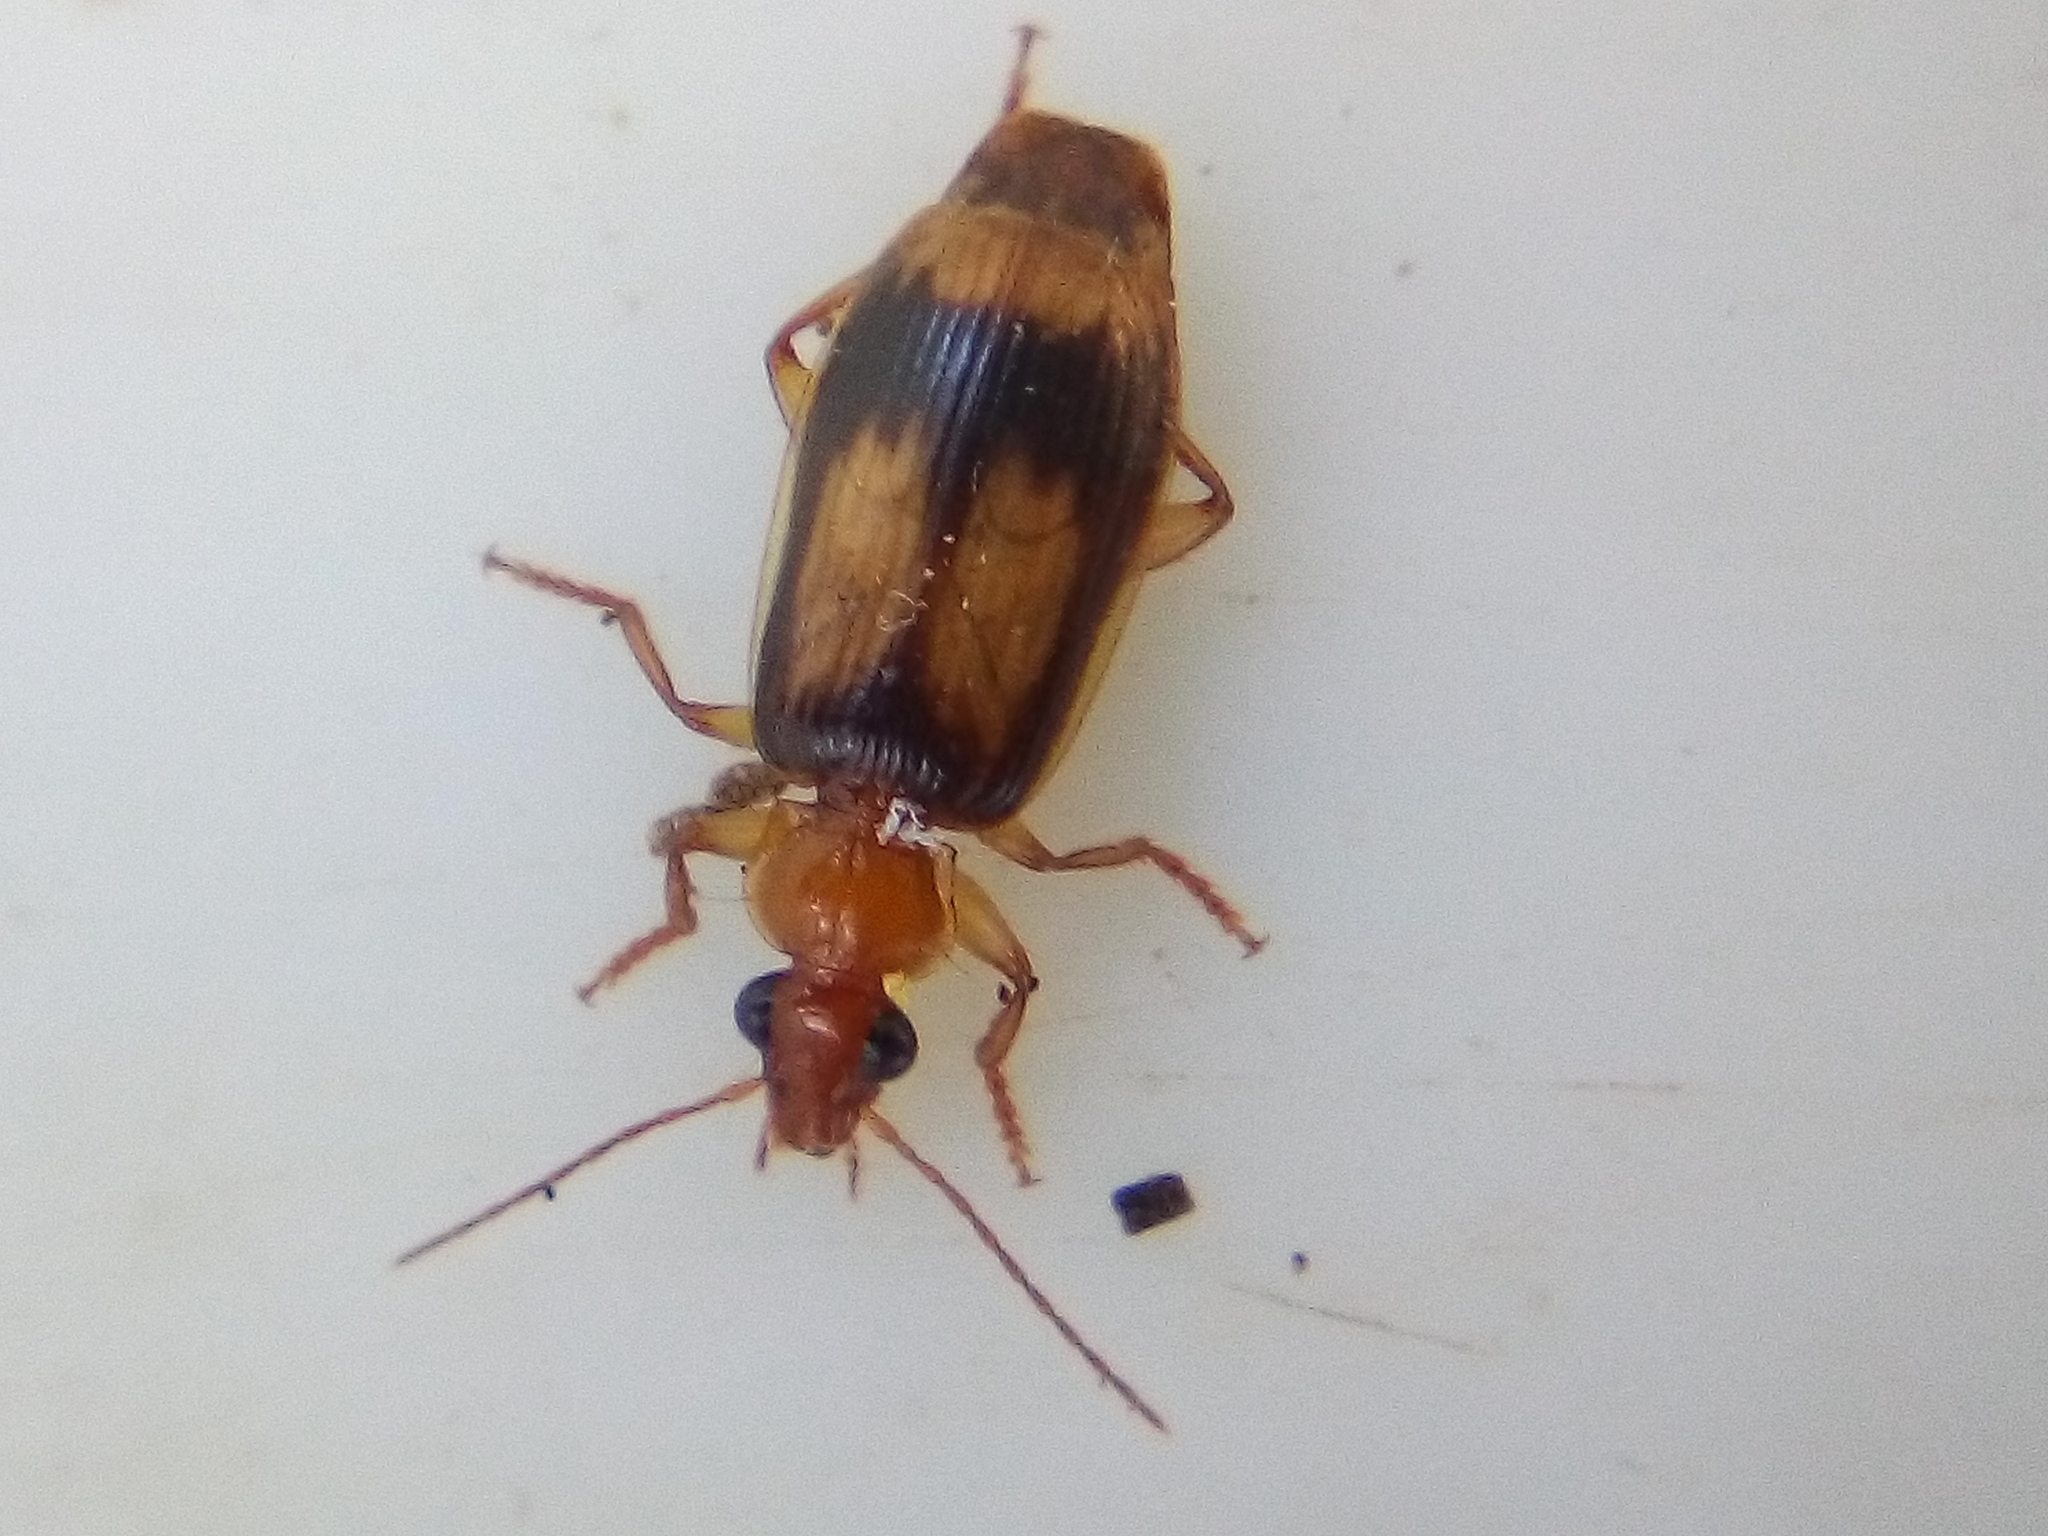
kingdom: Animalia
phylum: Arthropoda
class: Insecta
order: Coleoptera
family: Carabidae
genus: Trigonothops
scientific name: Trigonothops pacificus
